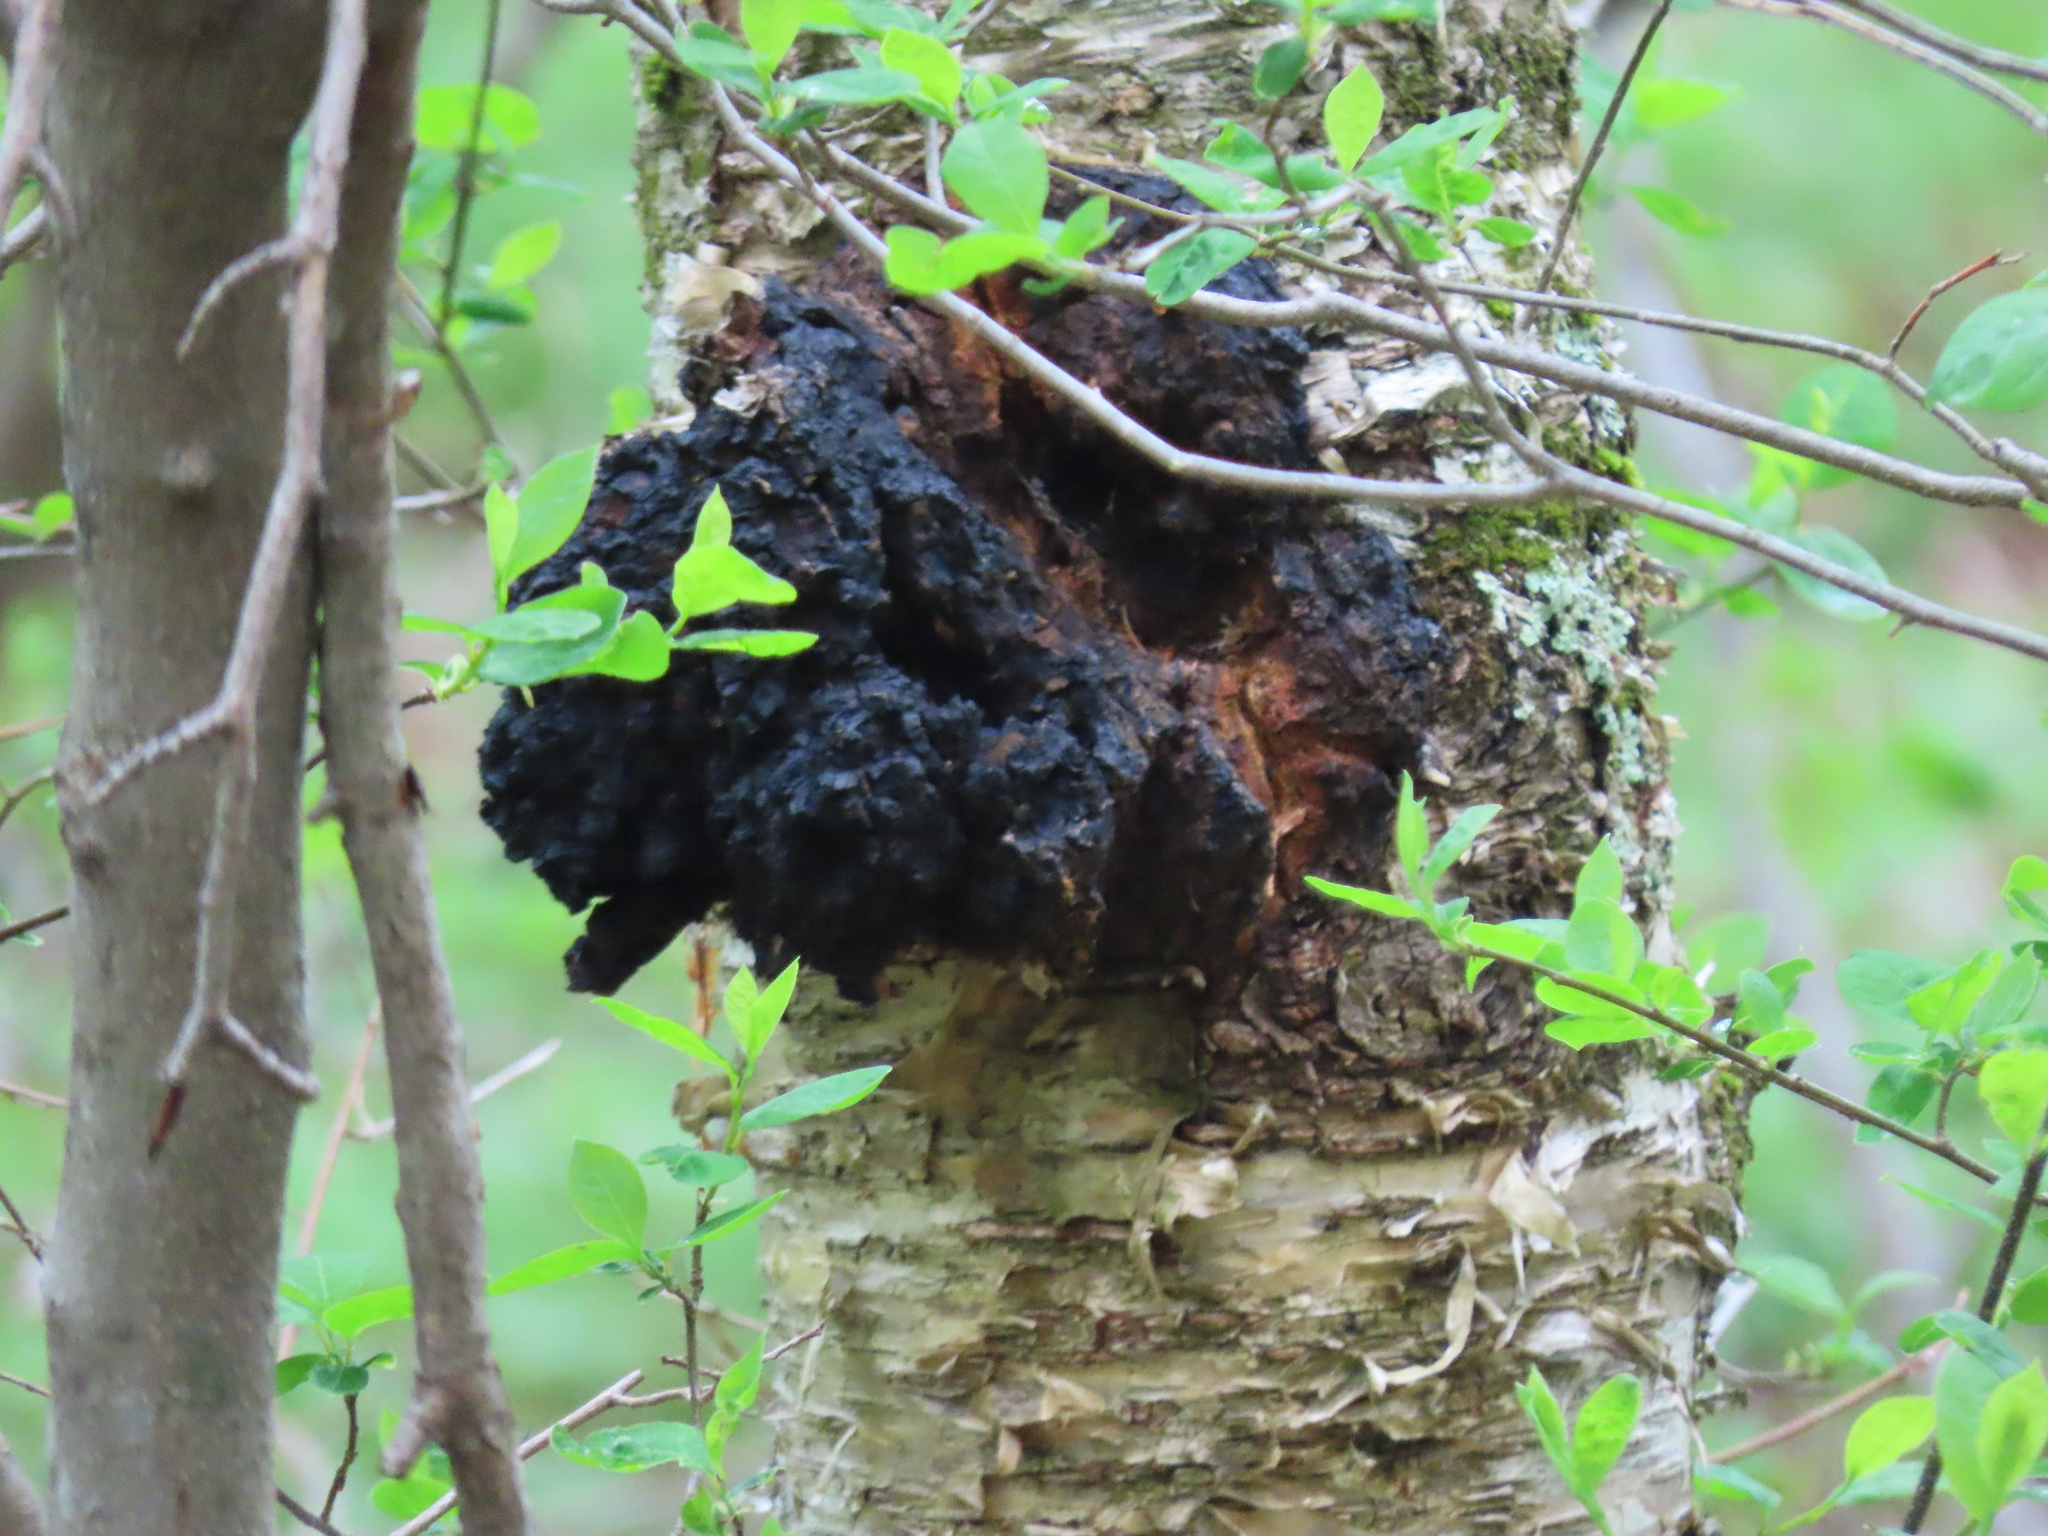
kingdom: Fungi
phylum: Basidiomycota
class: Agaricomycetes
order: Hymenochaetales
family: Hymenochaetaceae
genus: Inonotus
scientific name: Inonotus obliquus
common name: Chaga
